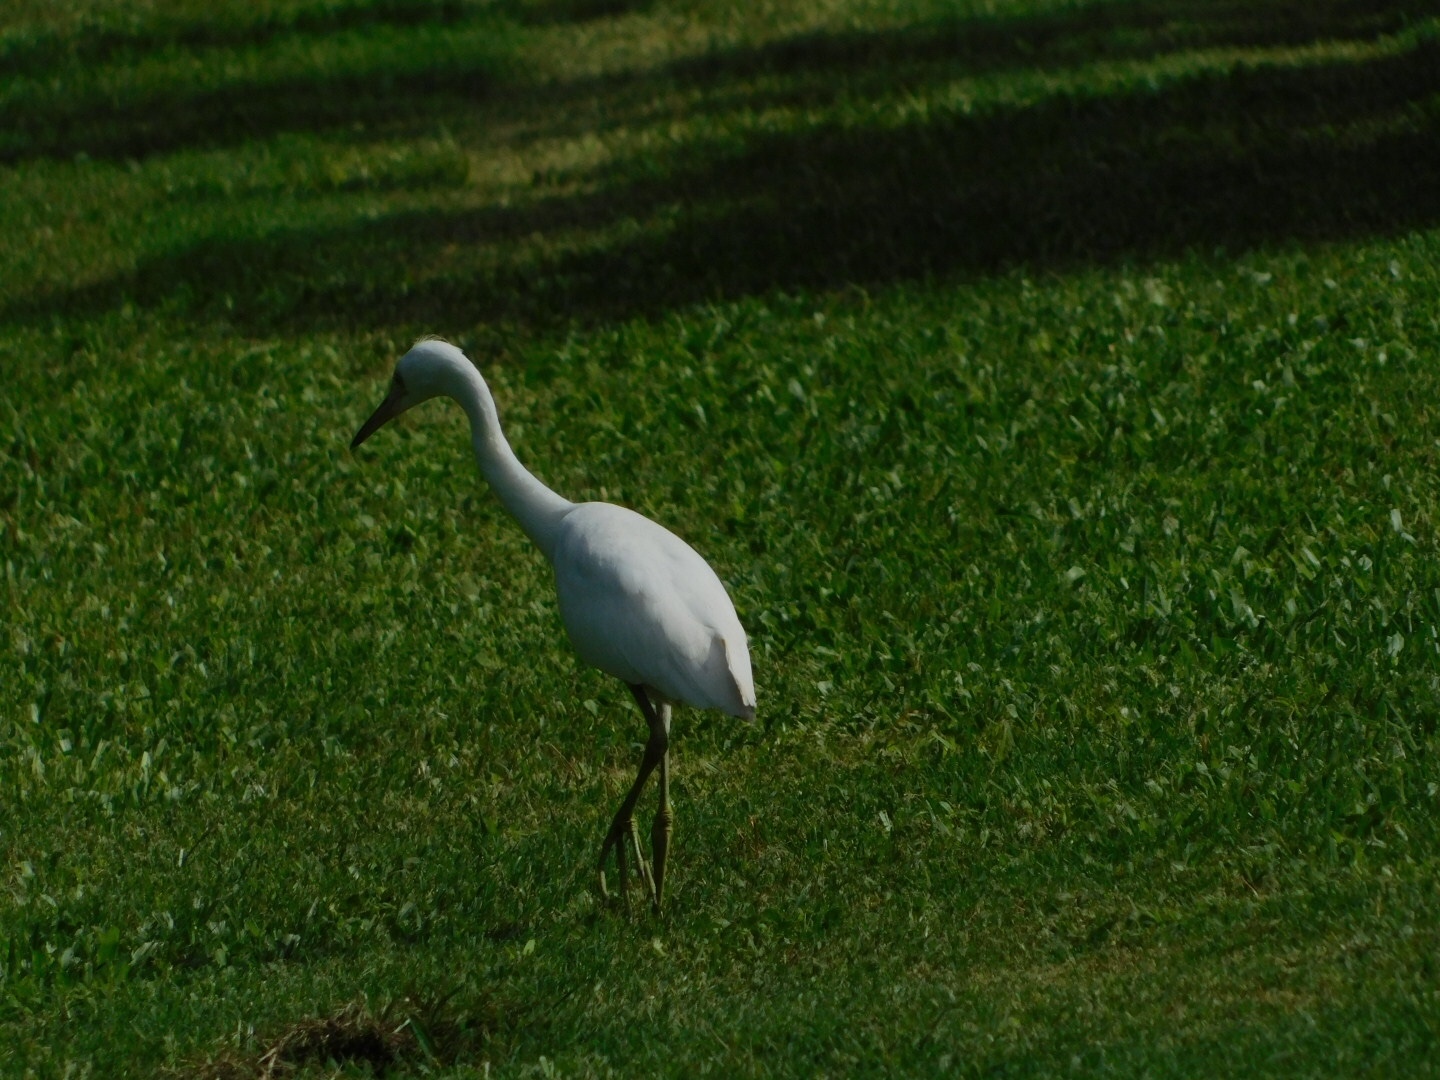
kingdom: Animalia
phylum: Chordata
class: Aves
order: Pelecaniformes
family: Ardeidae
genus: Egretta
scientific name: Egretta caerulea
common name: Little blue heron
